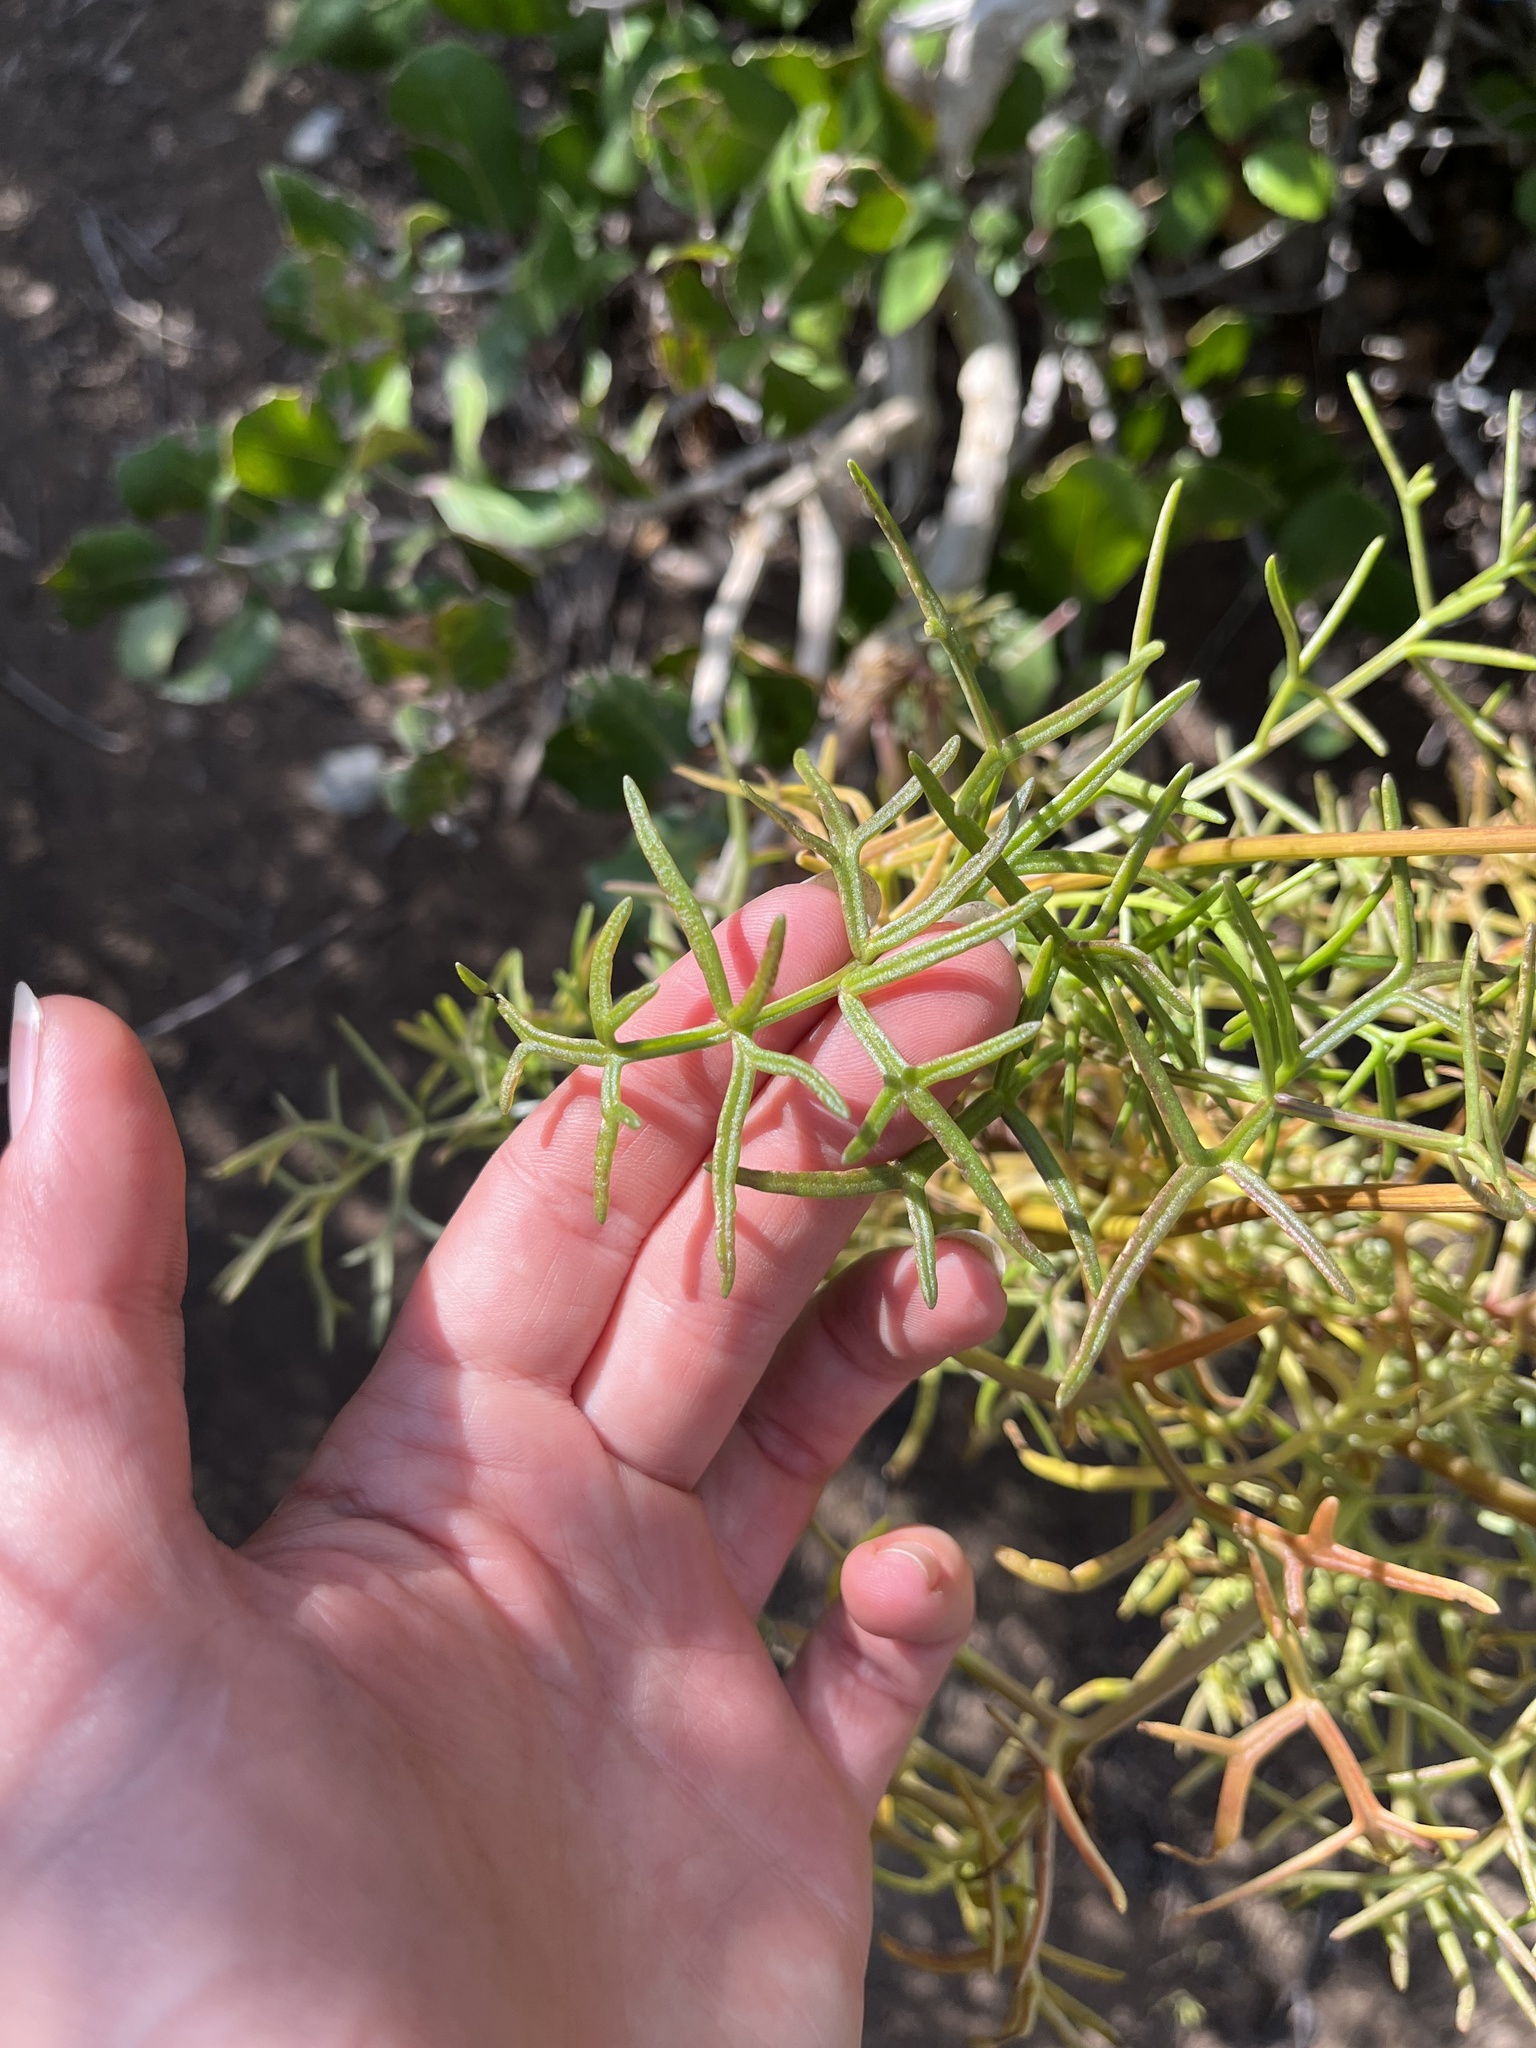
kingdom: Plantae
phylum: Tracheophyta
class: Magnoliopsida
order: Asterales
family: Asteraceae
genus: Coreopsis
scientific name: Coreopsis maritima
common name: Sea-dahlia
